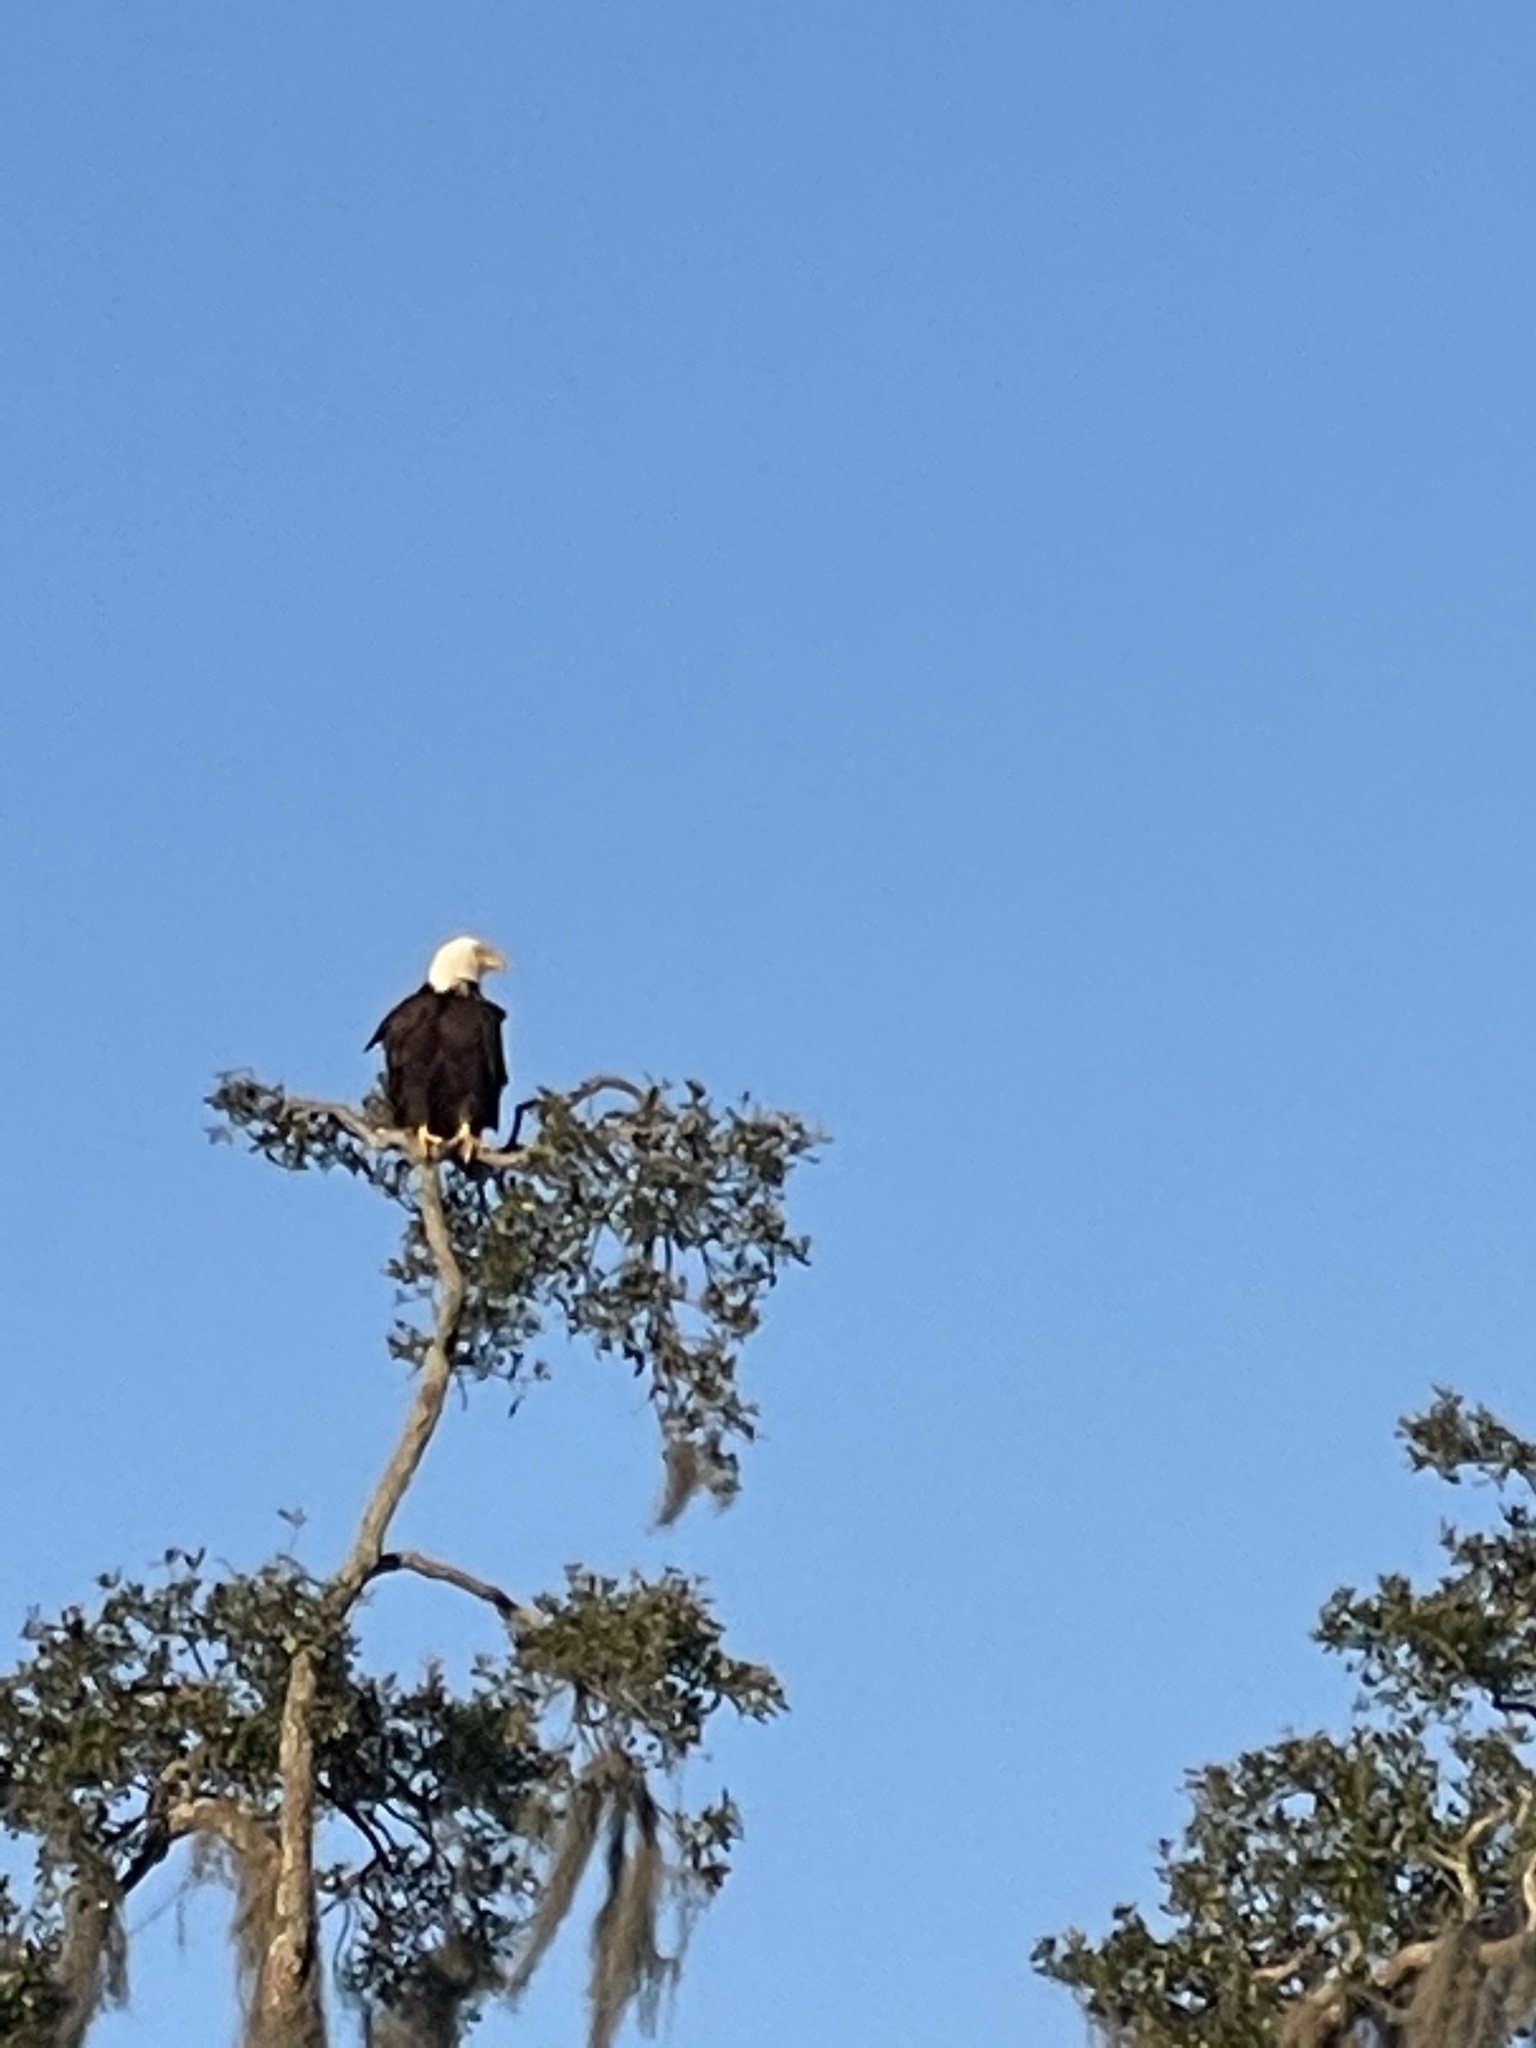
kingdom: Animalia
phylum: Chordata
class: Aves
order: Accipitriformes
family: Accipitridae
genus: Haliaeetus
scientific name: Haliaeetus leucocephalus
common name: Bald eagle
